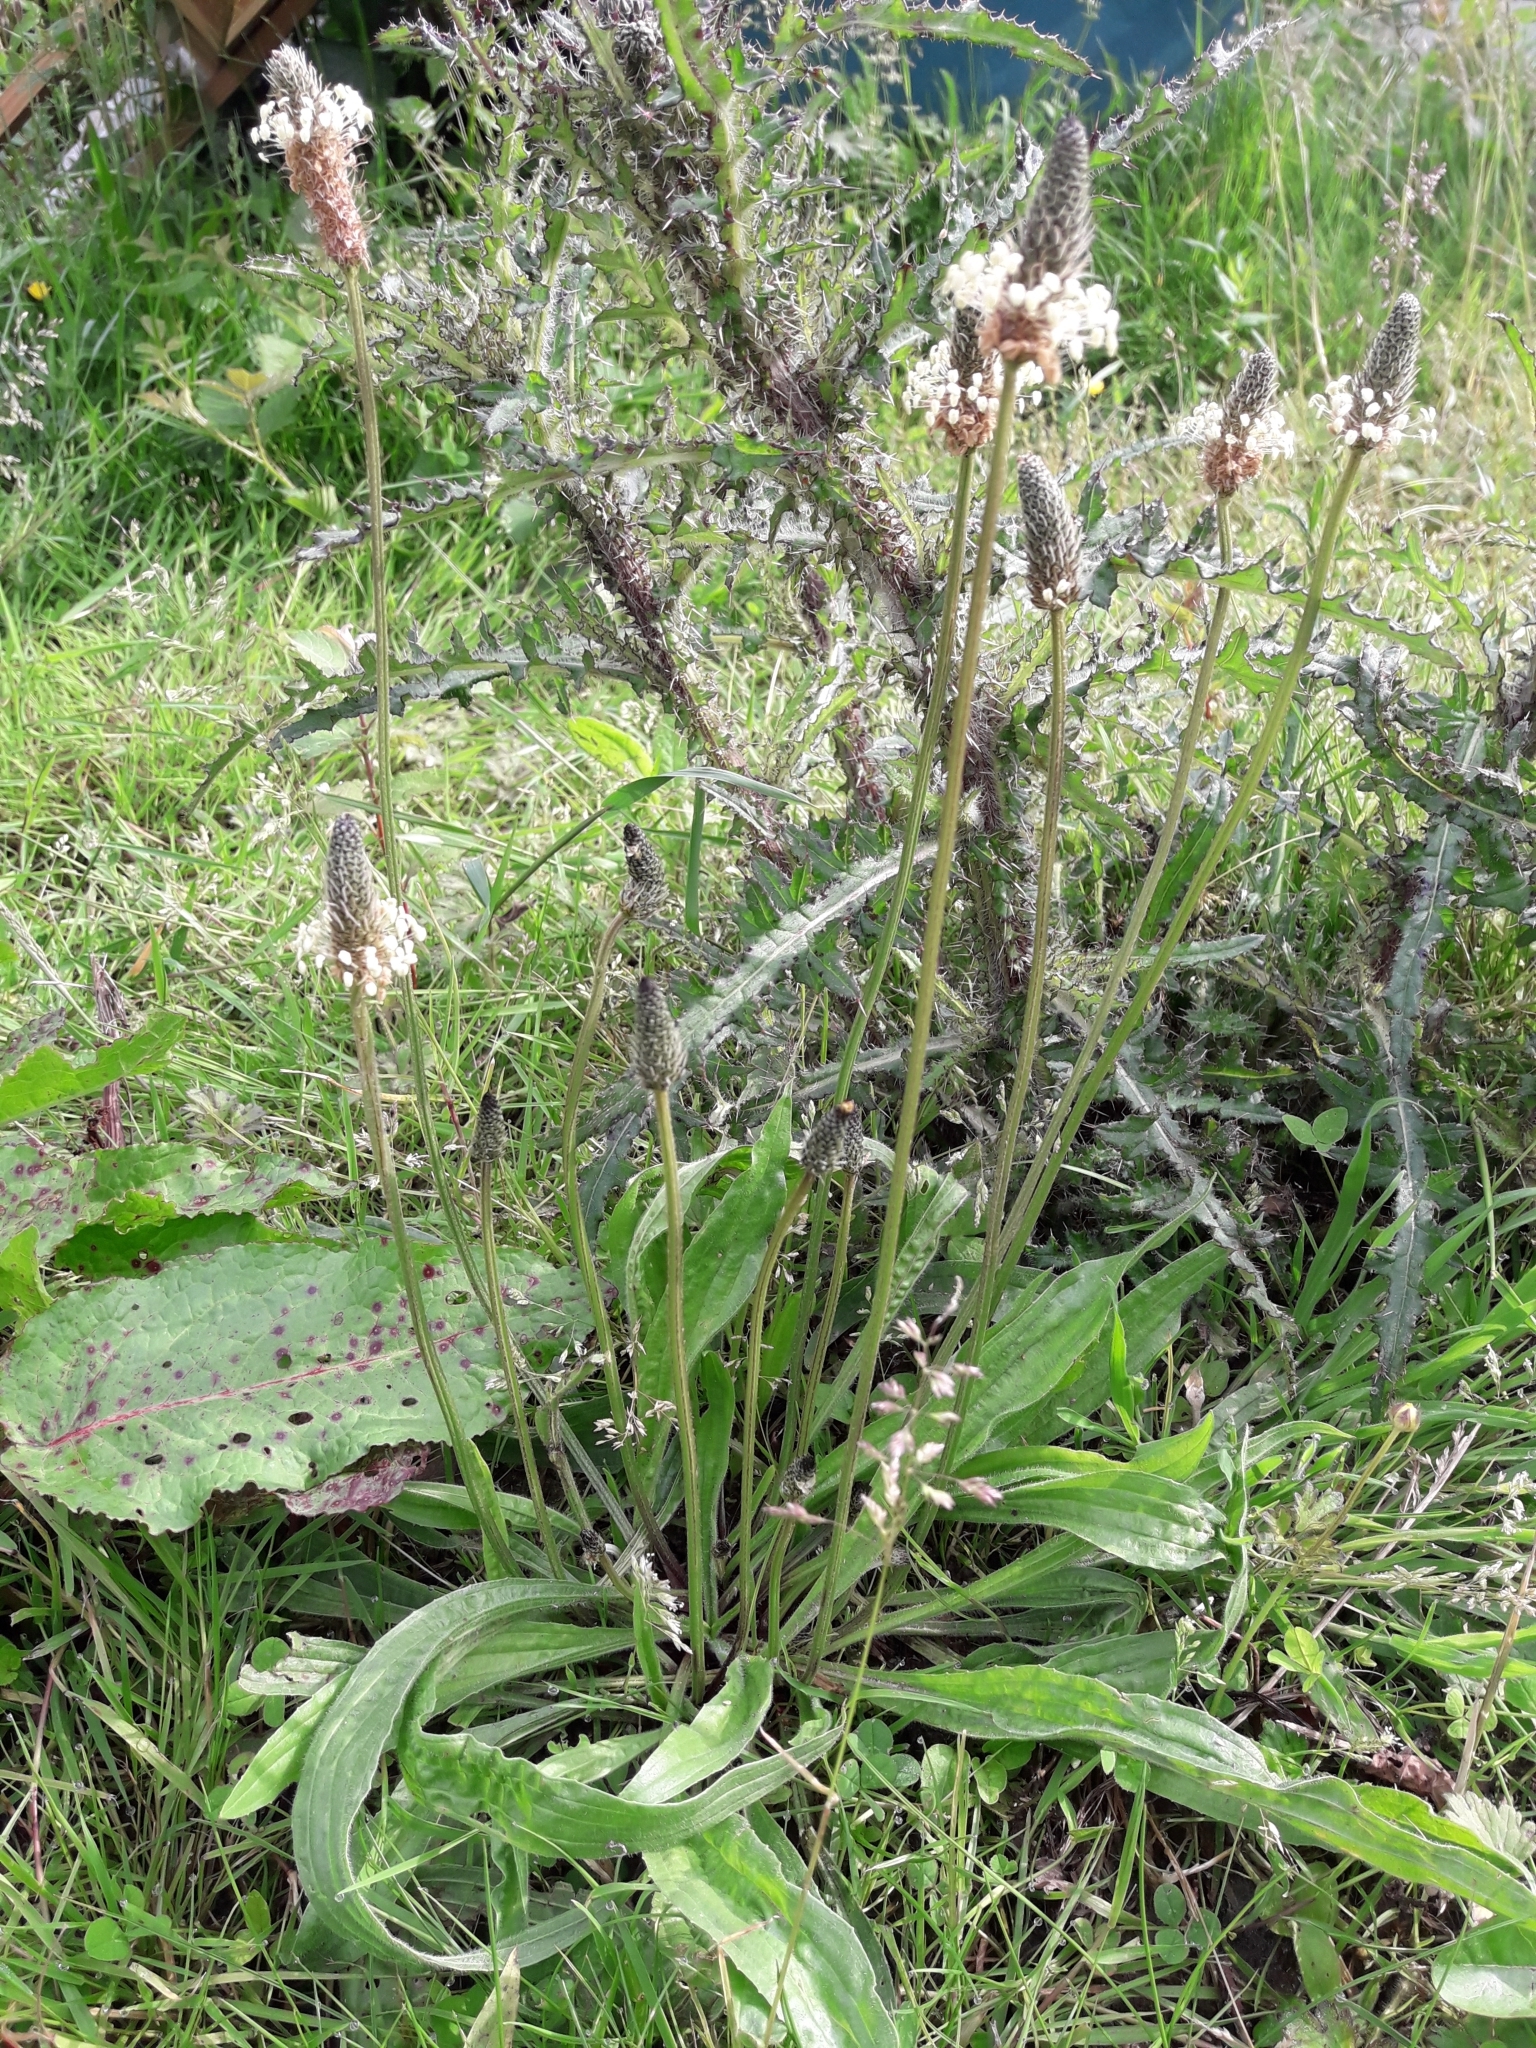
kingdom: Plantae
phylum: Tracheophyta
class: Magnoliopsida
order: Lamiales
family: Plantaginaceae
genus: Plantago
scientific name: Plantago lanceolata
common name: Ribwort plantain
